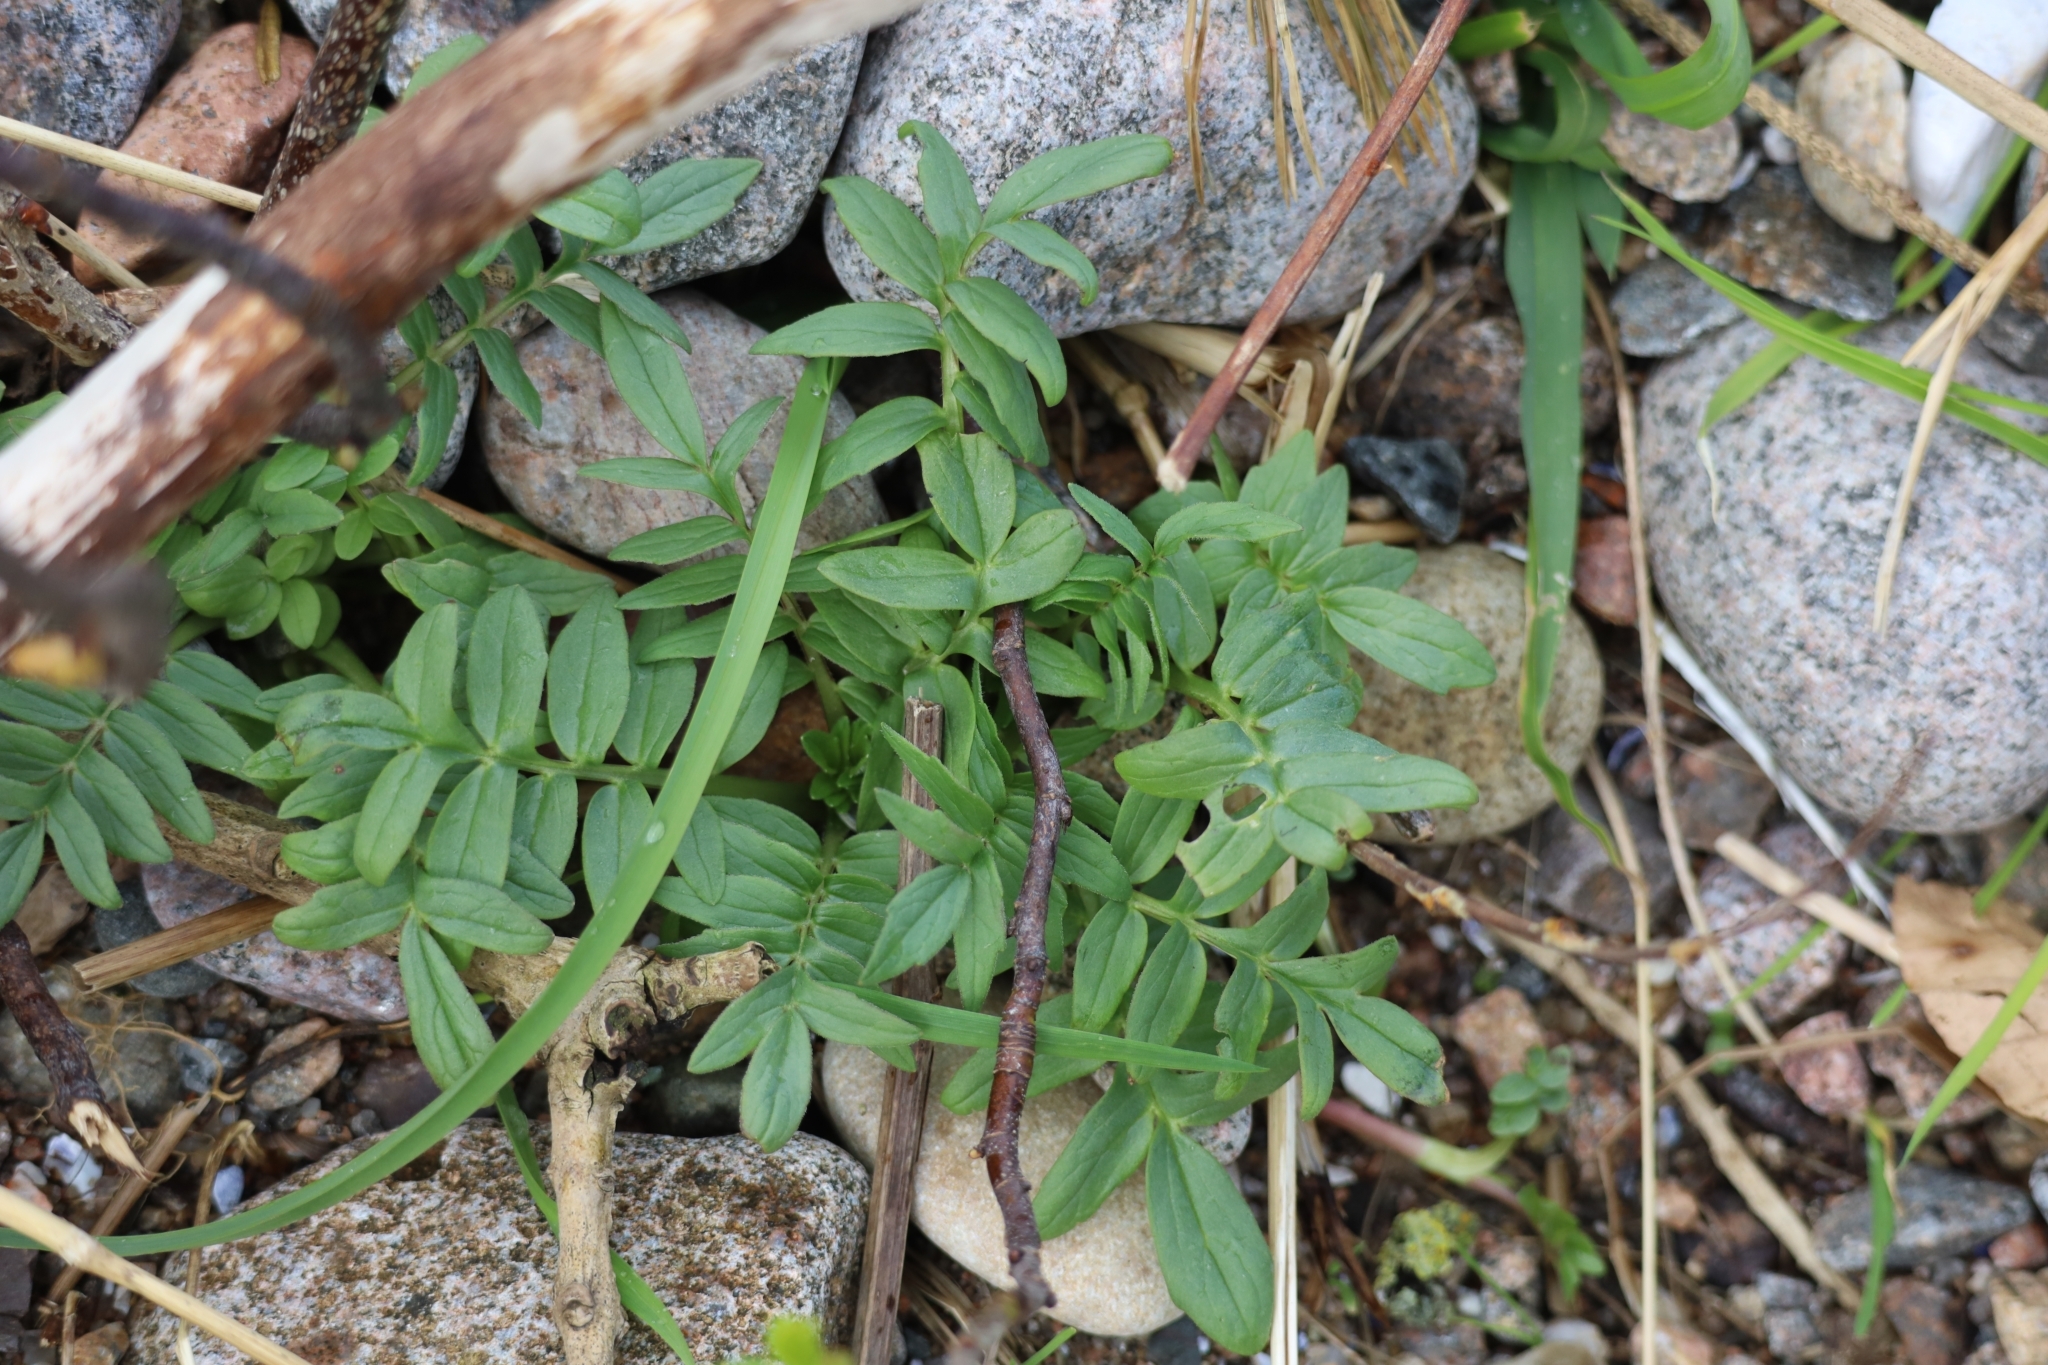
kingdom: Plantae
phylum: Tracheophyta
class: Magnoliopsida
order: Dipsacales
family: Caprifoliaceae
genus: Valeriana
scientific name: Valeriana officinalis
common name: Common valerian
